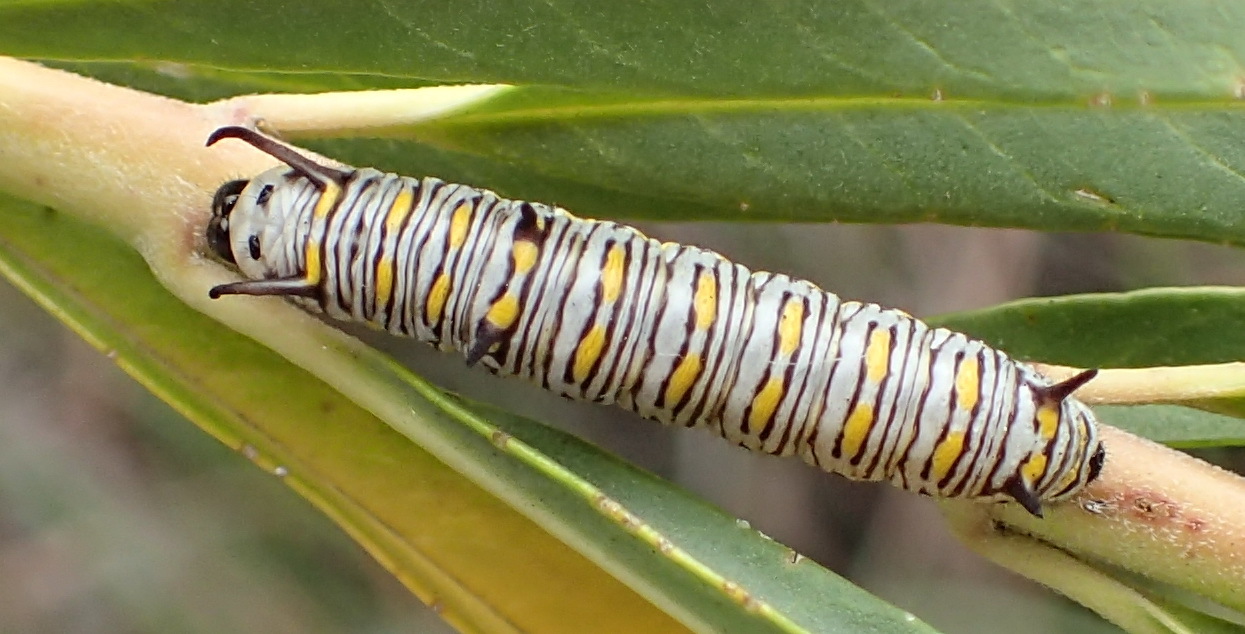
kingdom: Animalia
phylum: Arthropoda
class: Insecta
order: Lepidoptera
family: Nymphalidae
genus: Danaus
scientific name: Danaus chrysippus
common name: Plain tiger
